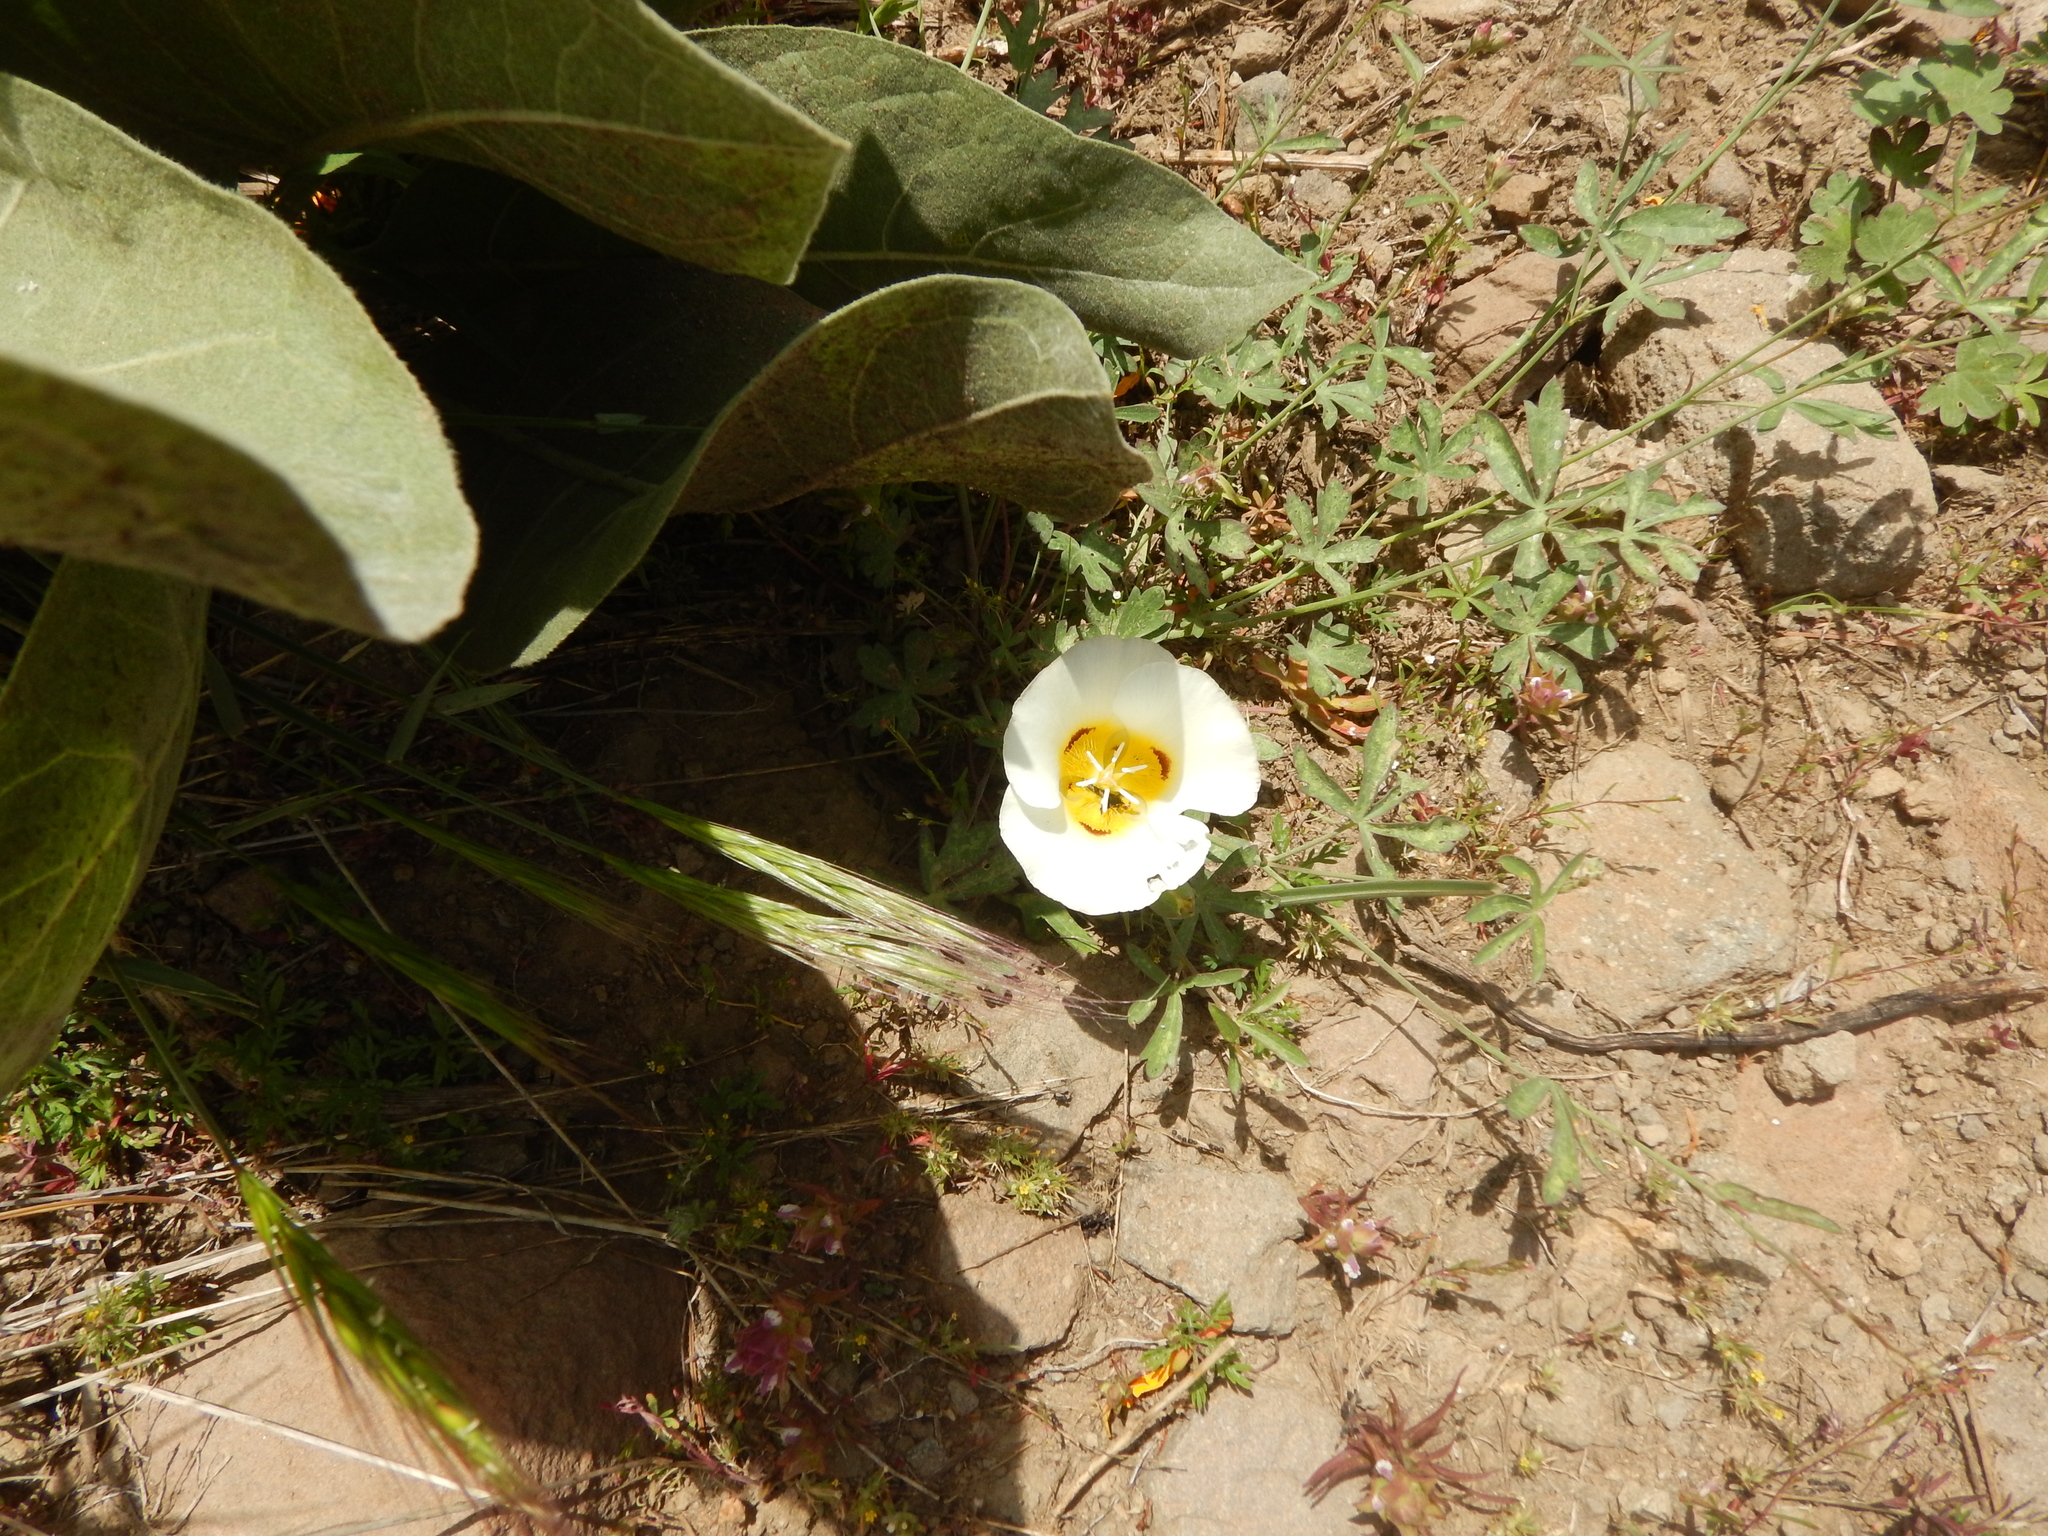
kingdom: Plantae
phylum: Tracheophyta
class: Liliopsida
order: Liliales
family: Liliaceae
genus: Calochortus
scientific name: Calochortus leichtlinii
